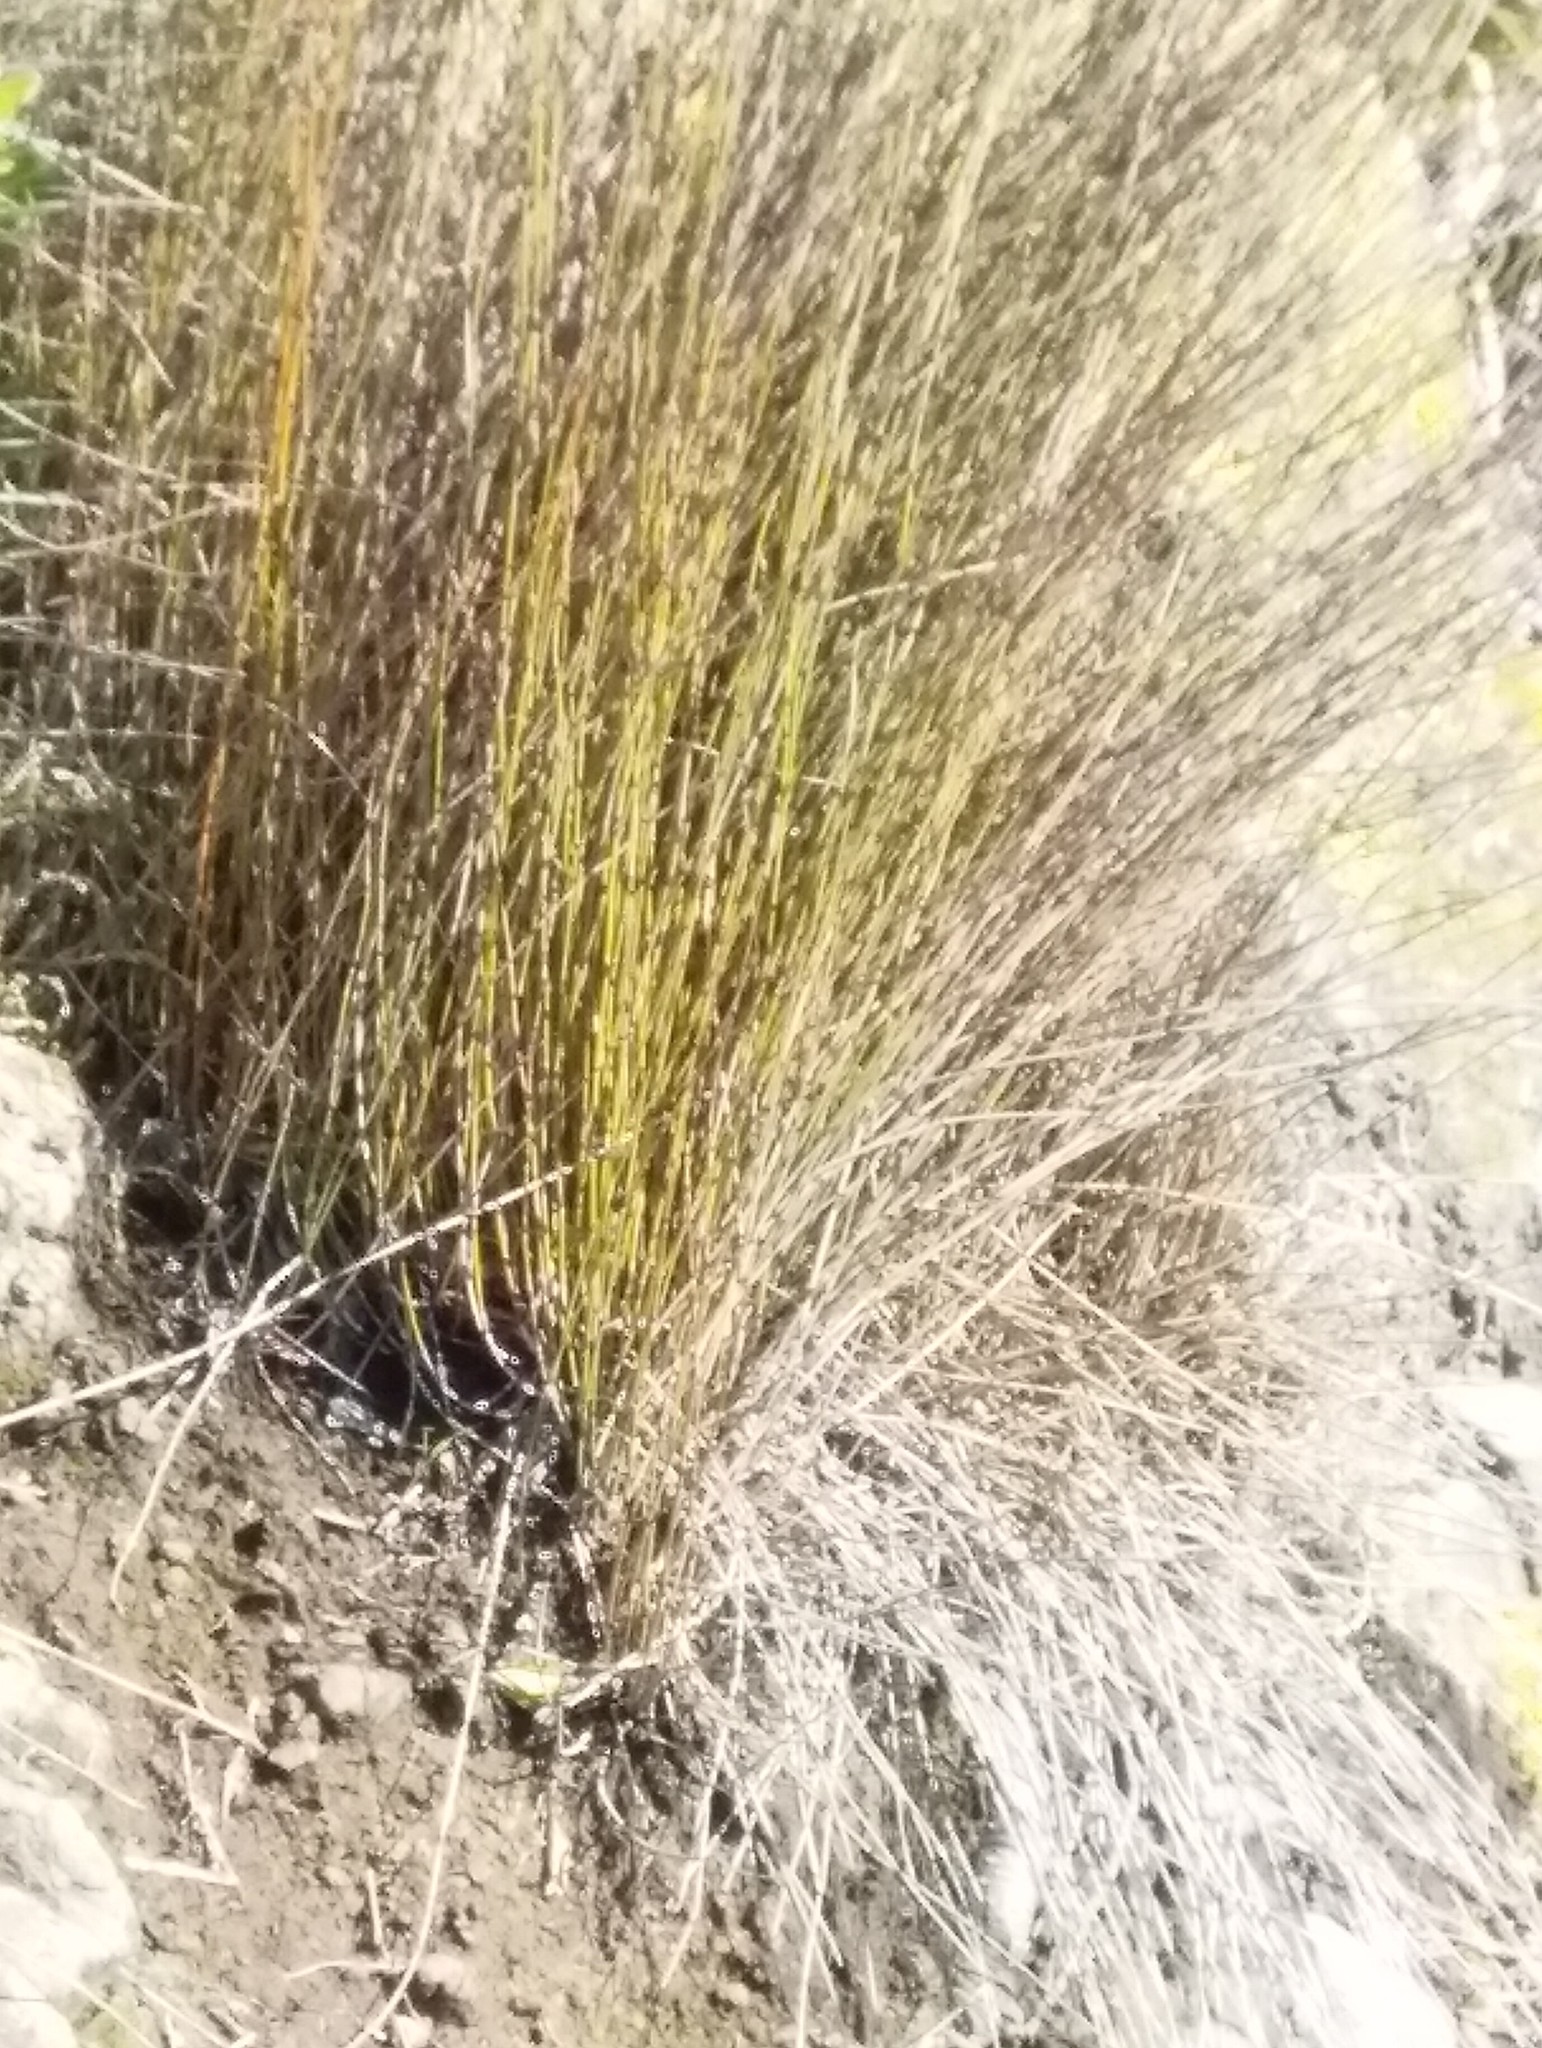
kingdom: Plantae
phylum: Tracheophyta
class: Liliopsida
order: Poales
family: Restionaceae
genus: Apodasmia
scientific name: Apodasmia similis
